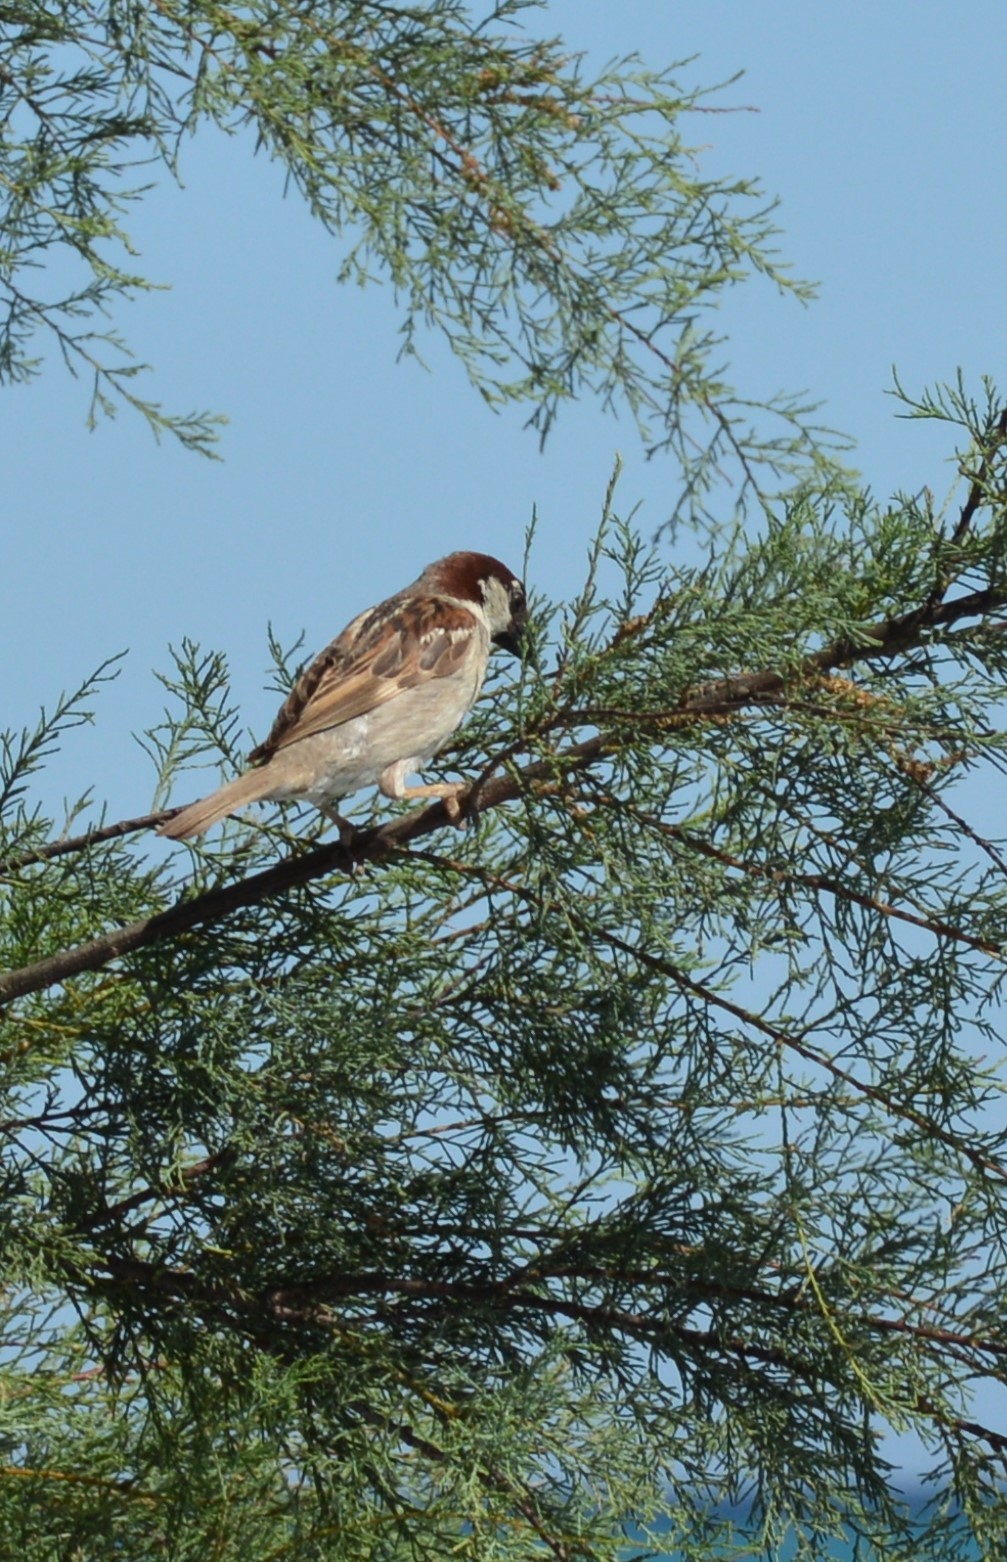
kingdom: Animalia
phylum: Chordata
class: Aves
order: Passeriformes
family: Passeridae
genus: Passer
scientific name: Passer domesticus
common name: House sparrow
